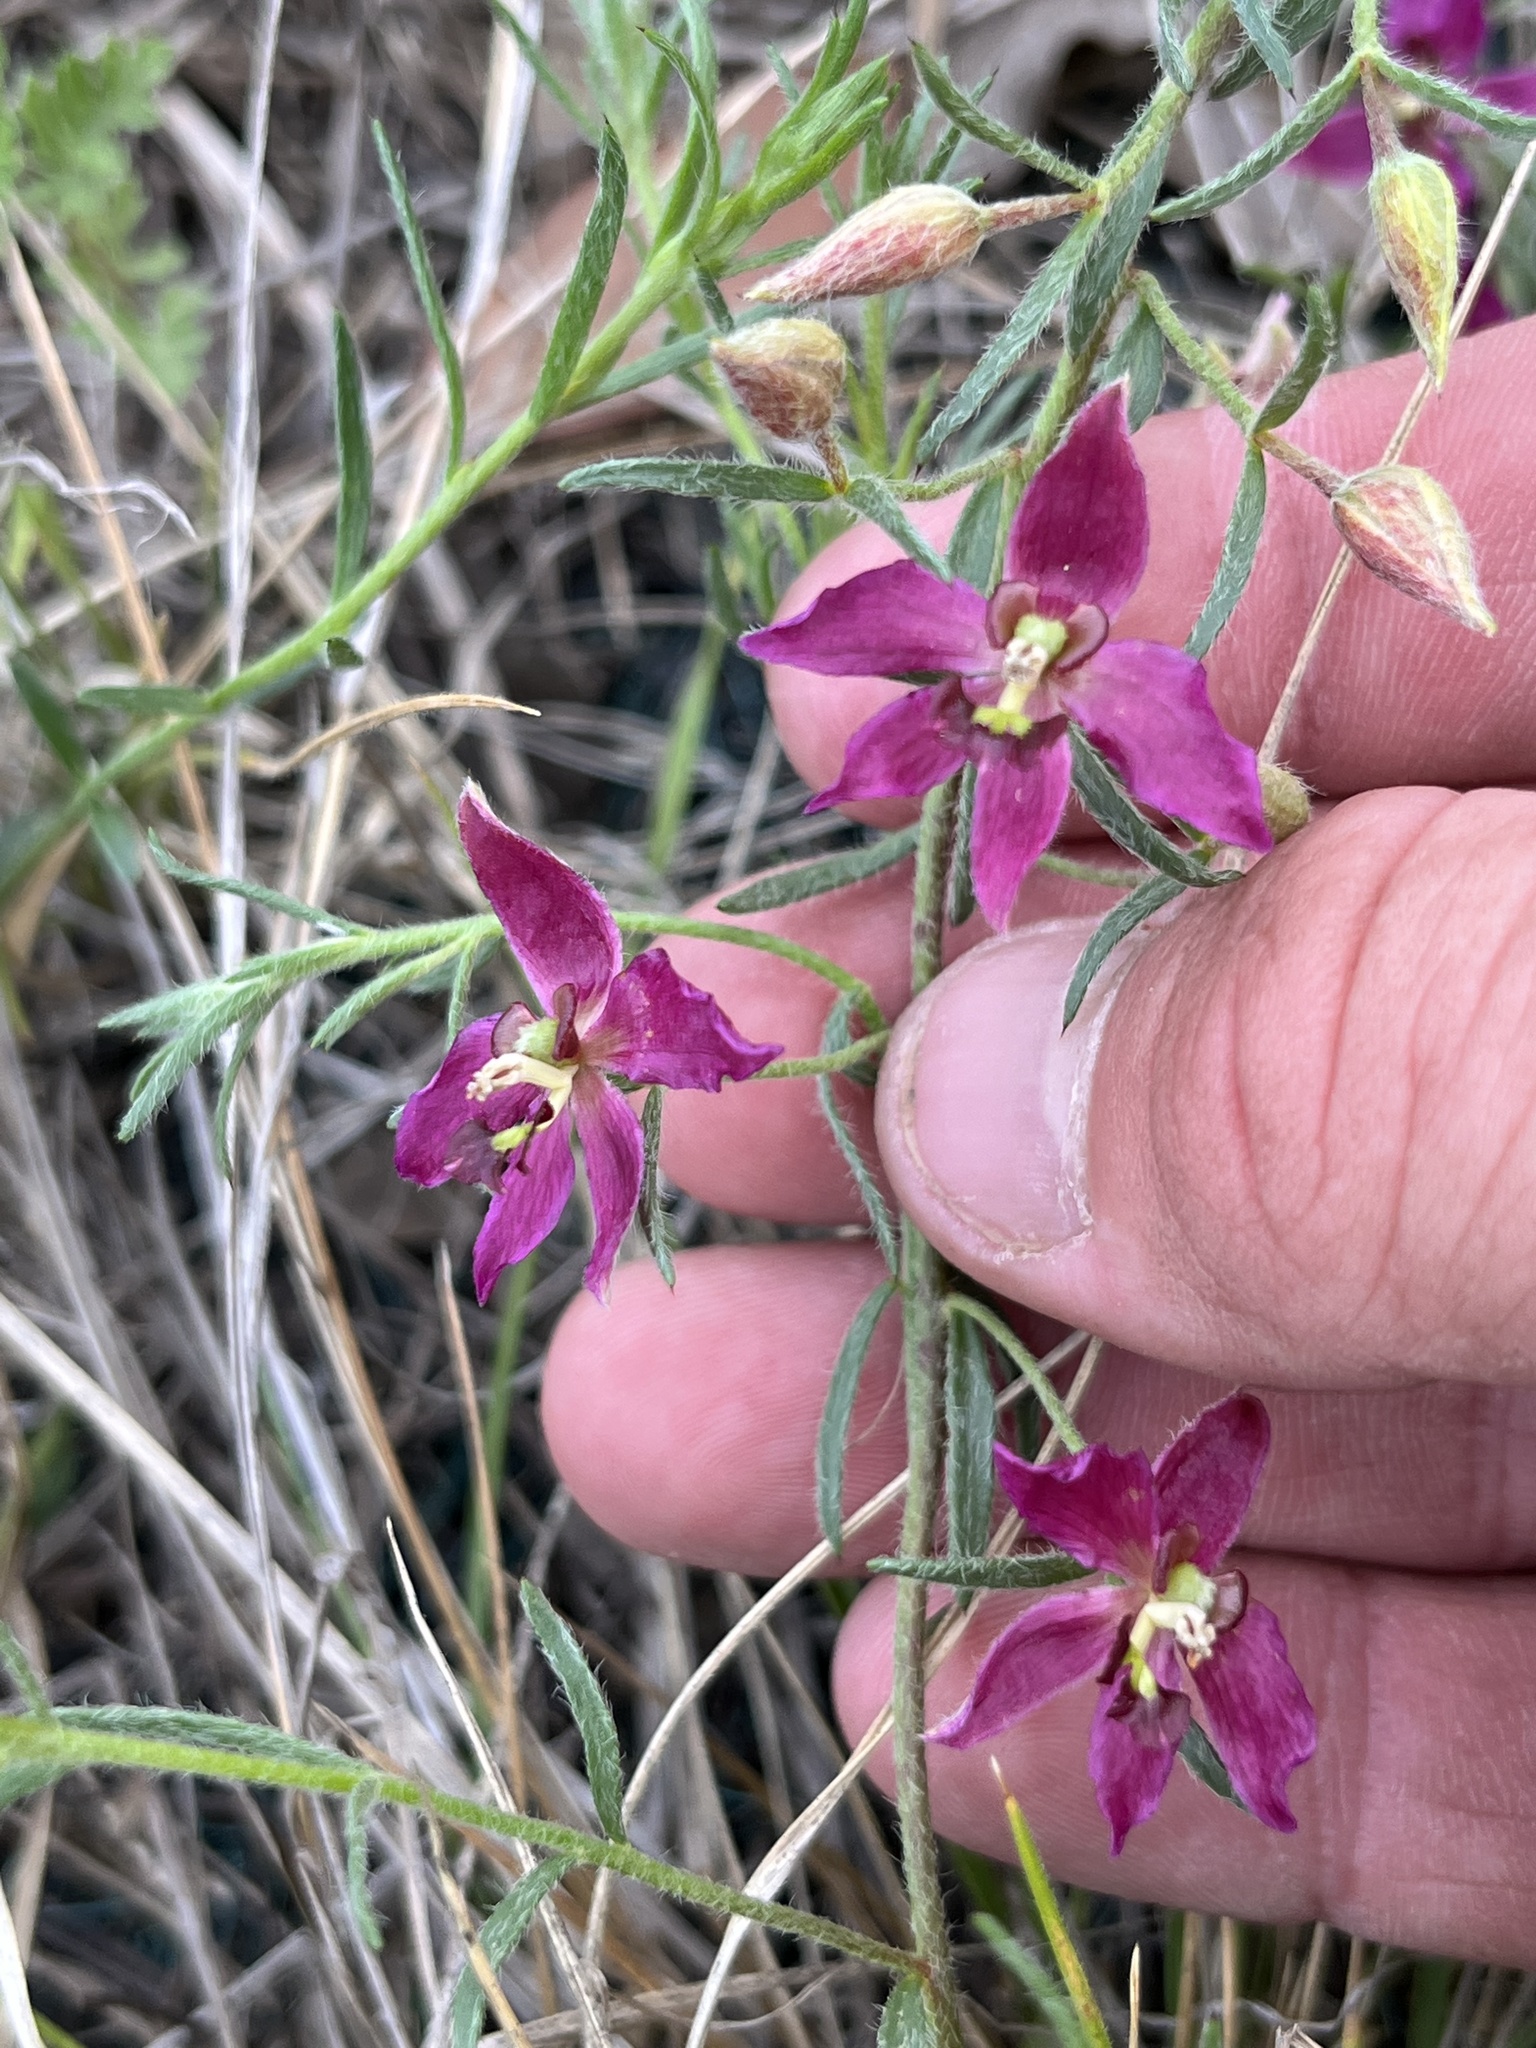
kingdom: Plantae
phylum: Tracheophyta
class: Magnoliopsida
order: Zygophyllales
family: Krameriaceae
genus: Krameria
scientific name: Krameria lanceolata
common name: Ratany
